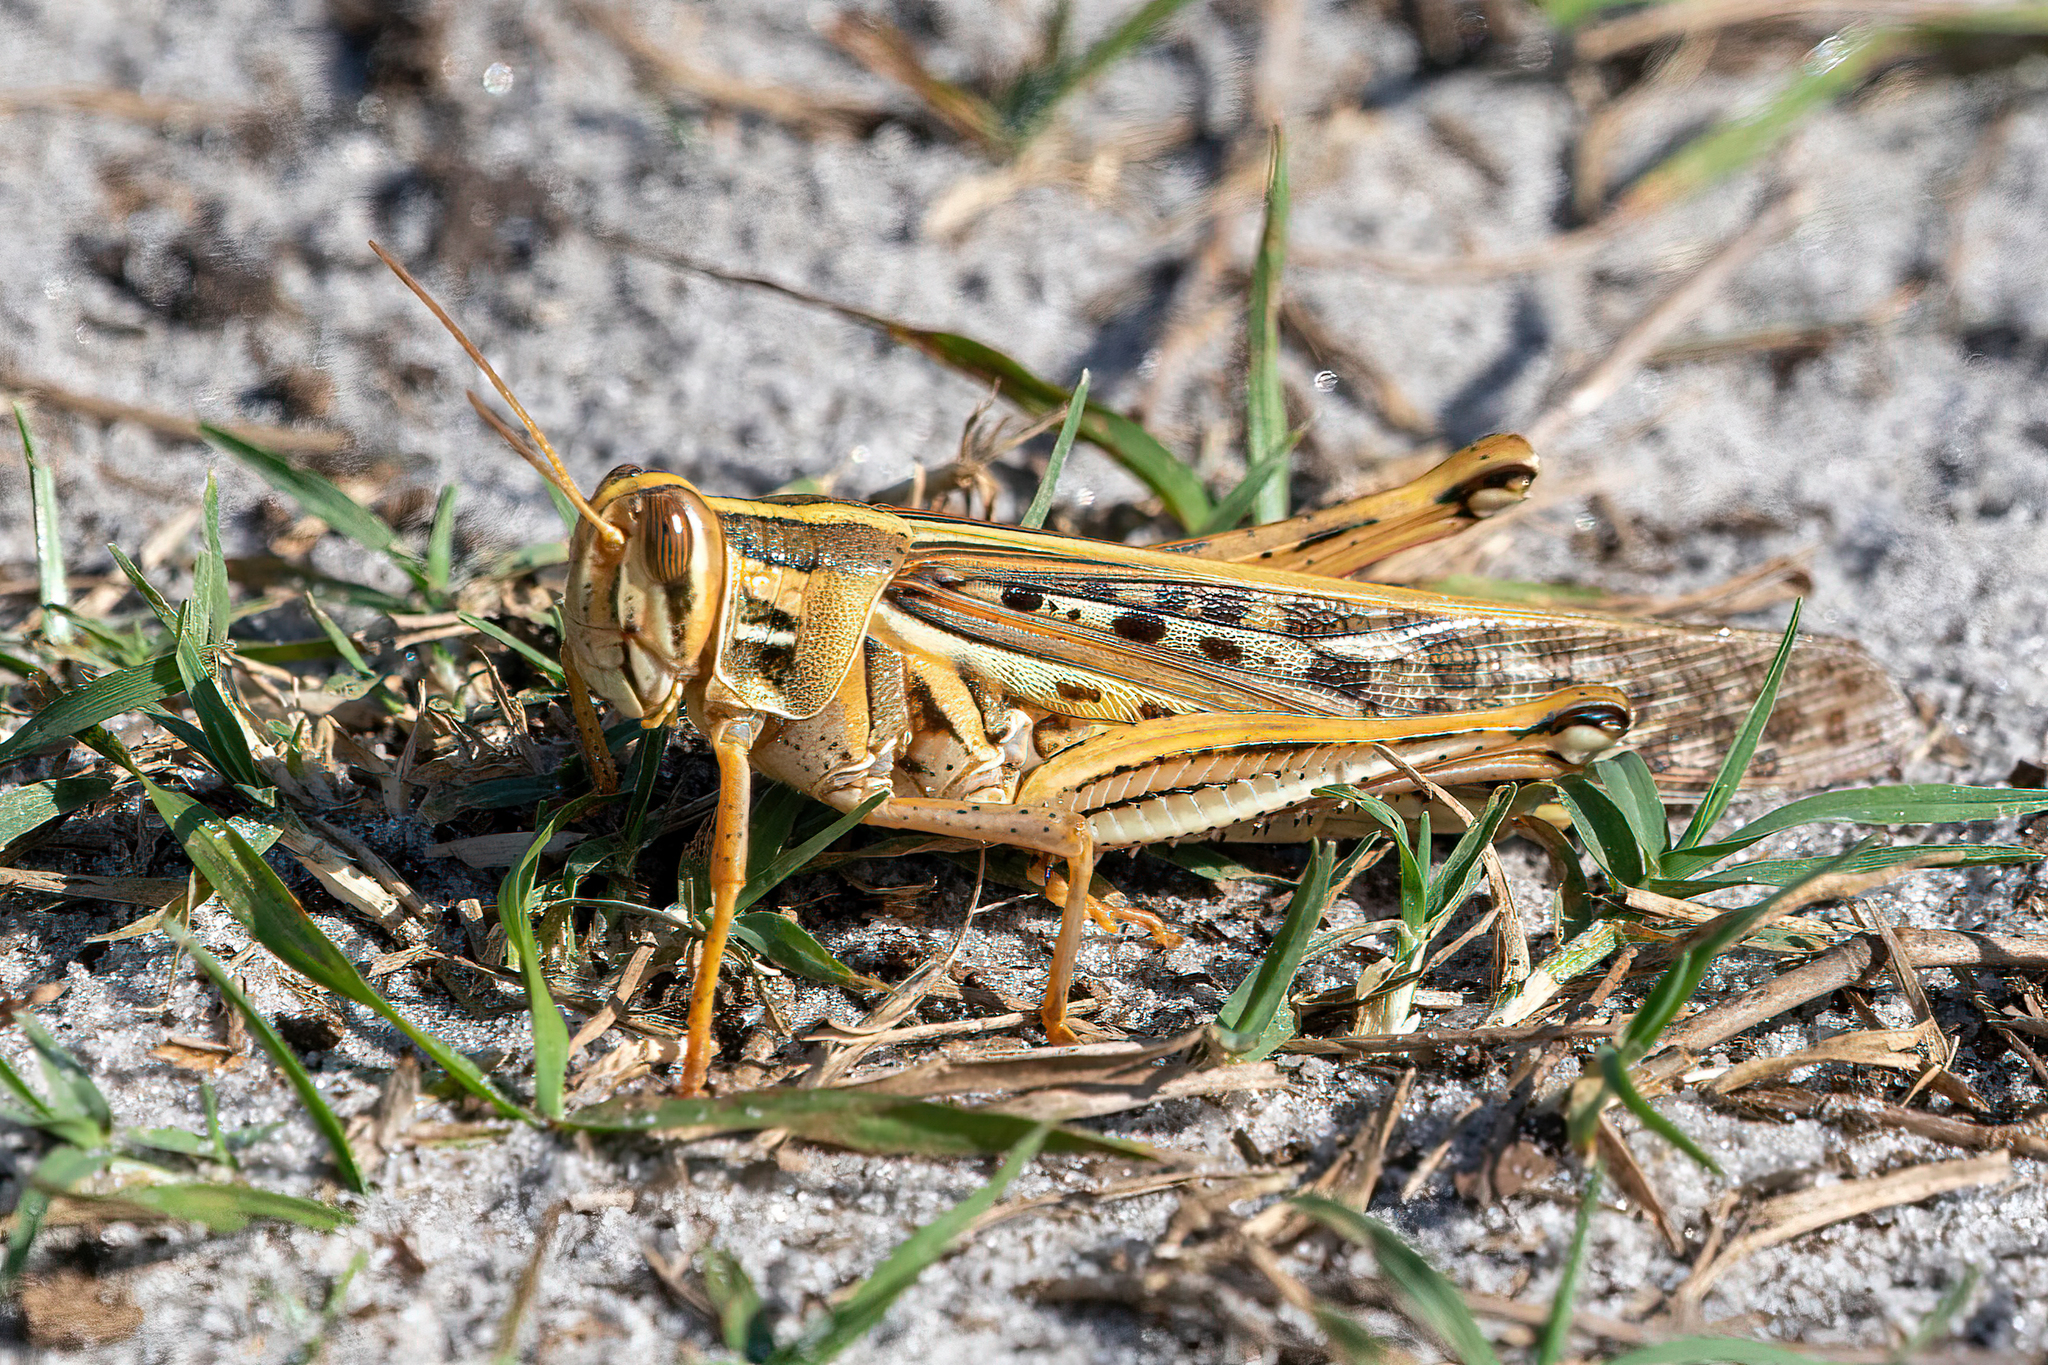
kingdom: Animalia
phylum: Arthropoda
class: Insecta
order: Orthoptera
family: Acrididae
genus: Schistocerca
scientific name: Schistocerca americana
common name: American bird locust
